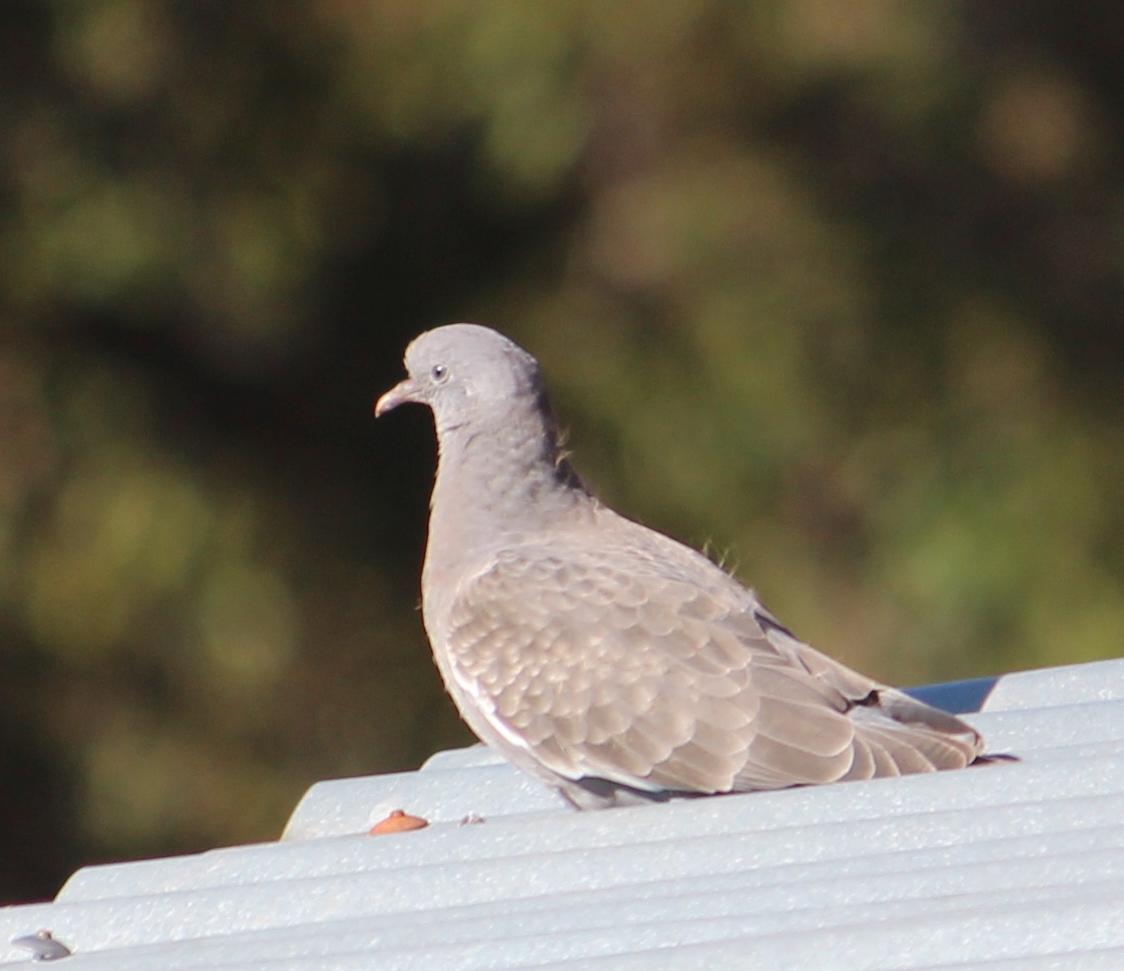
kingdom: Animalia
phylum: Chordata
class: Aves
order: Columbiformes
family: Columbidae
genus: Patagioenas
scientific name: Patagioenas maculosa
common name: Spot-winged pigeon
